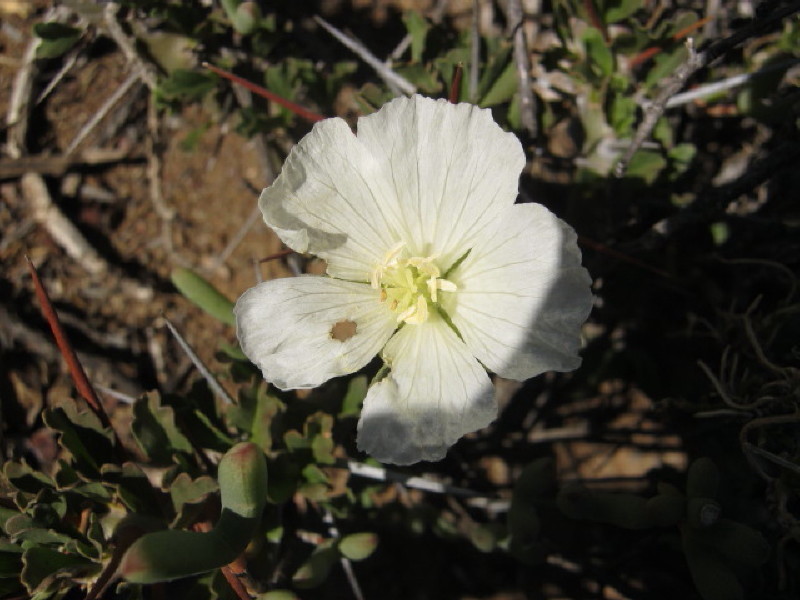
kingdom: Plantae
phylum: Tracheophyta
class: Magnoliopsida
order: Geraniales
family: Geraniaceae
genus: Monsonia
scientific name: Monsonia crassicaulis
